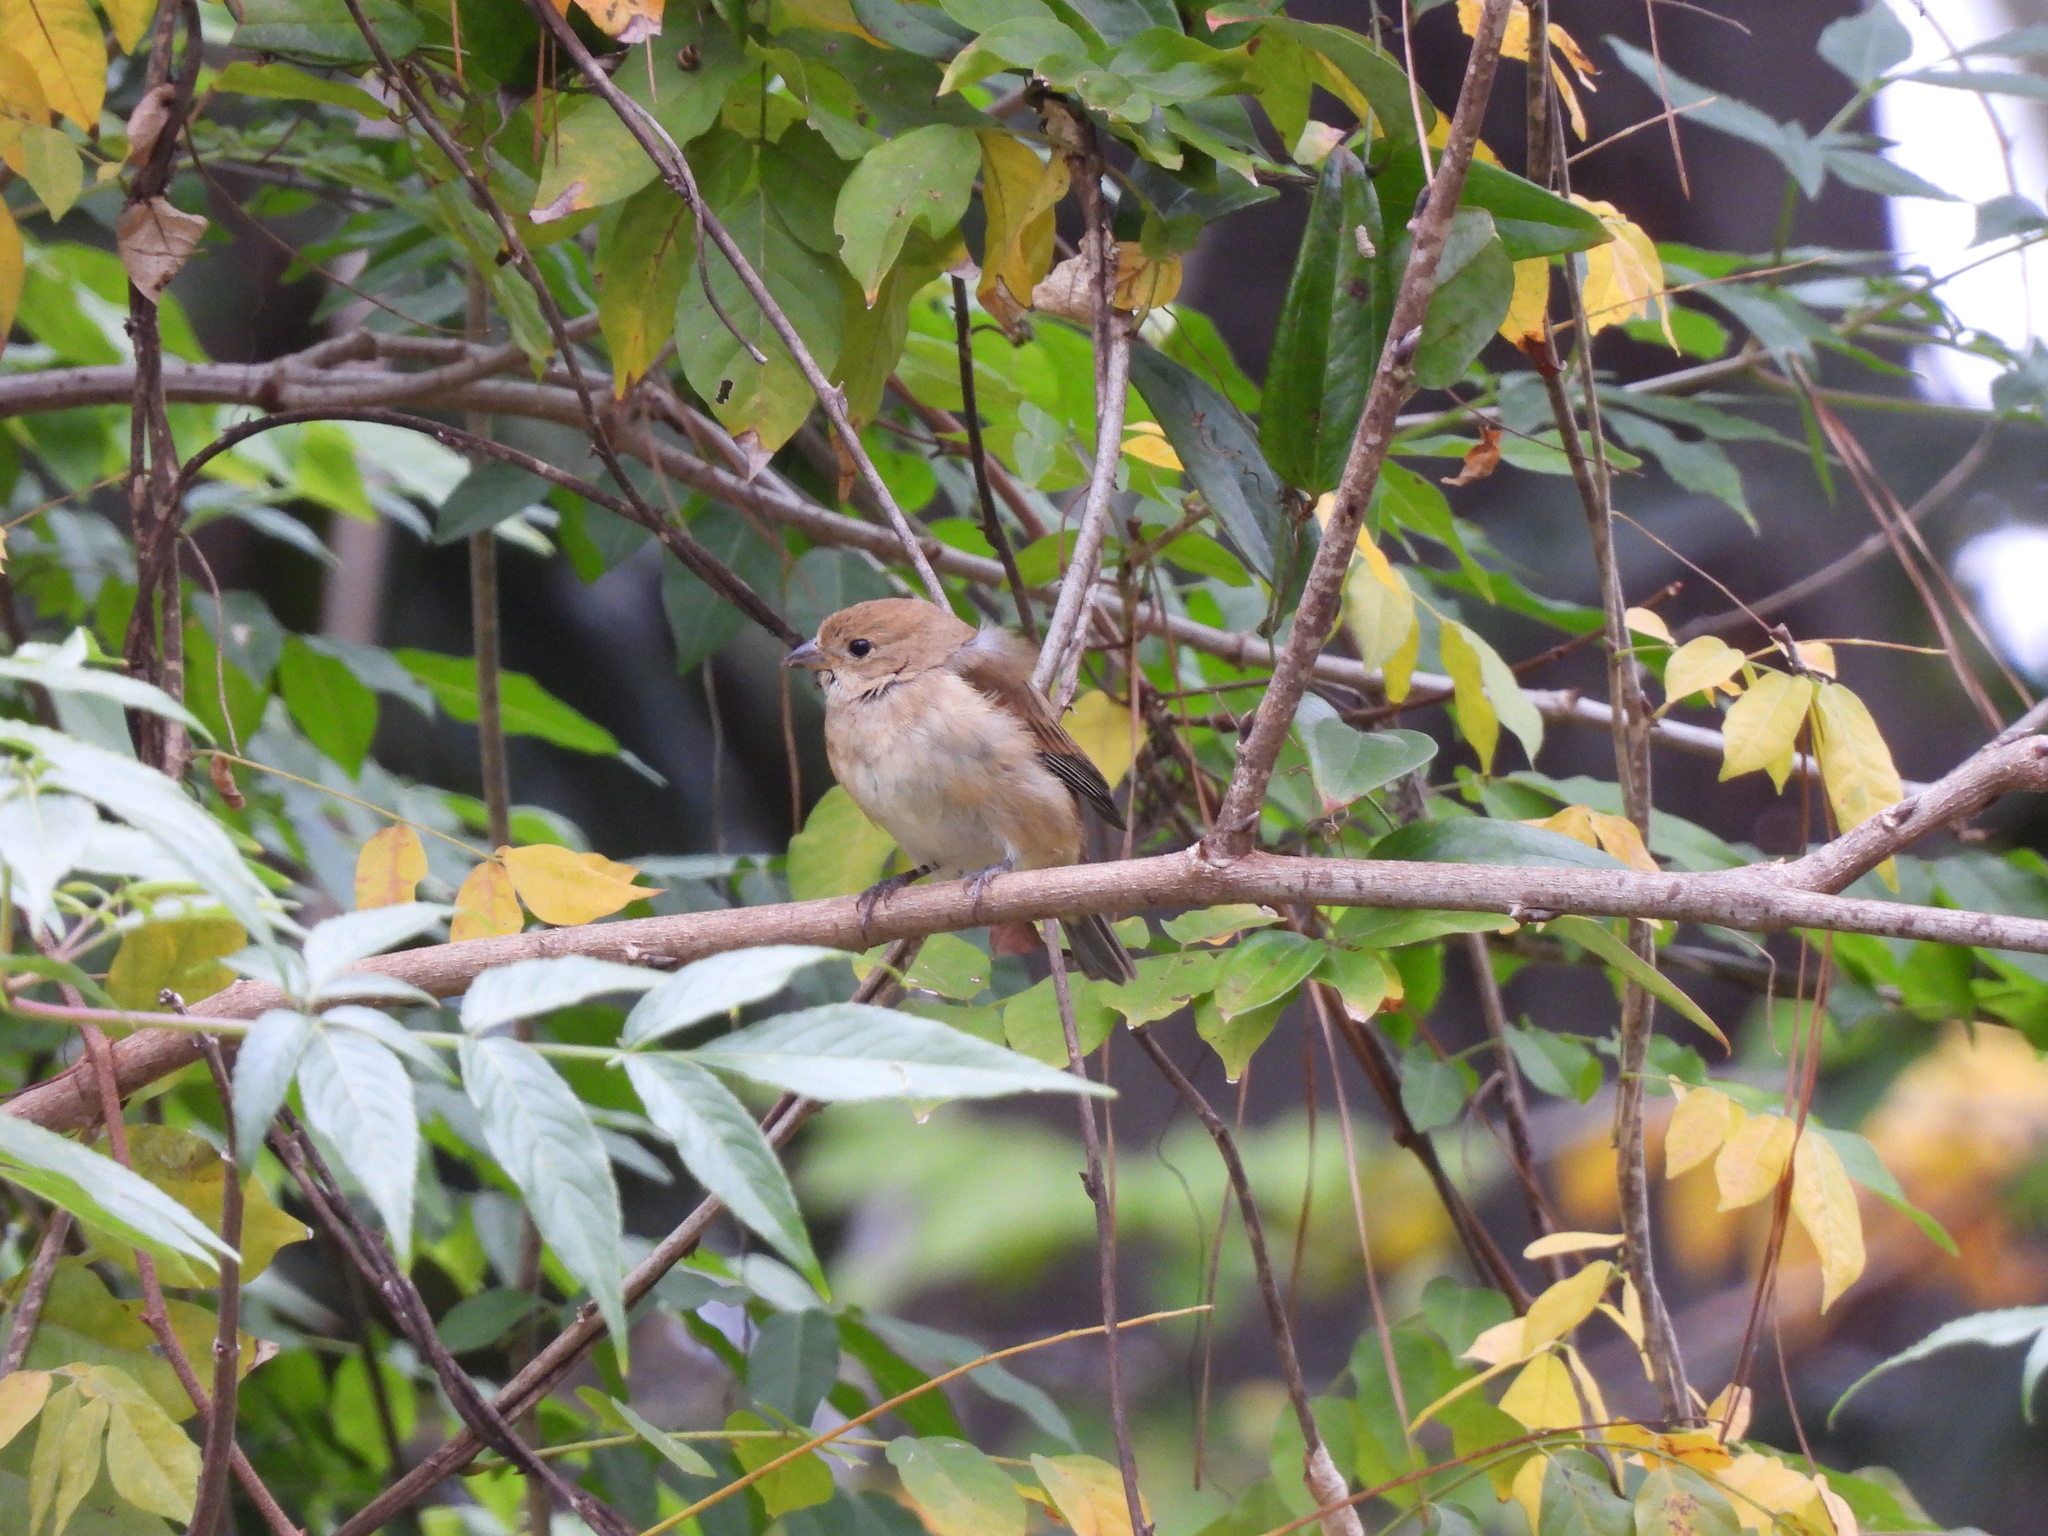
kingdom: Animalia
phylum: Chordata
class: Aves
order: Passeriformes
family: Cardinalidae
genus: Passerina
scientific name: Passerina cyanea
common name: Indigo bunting
